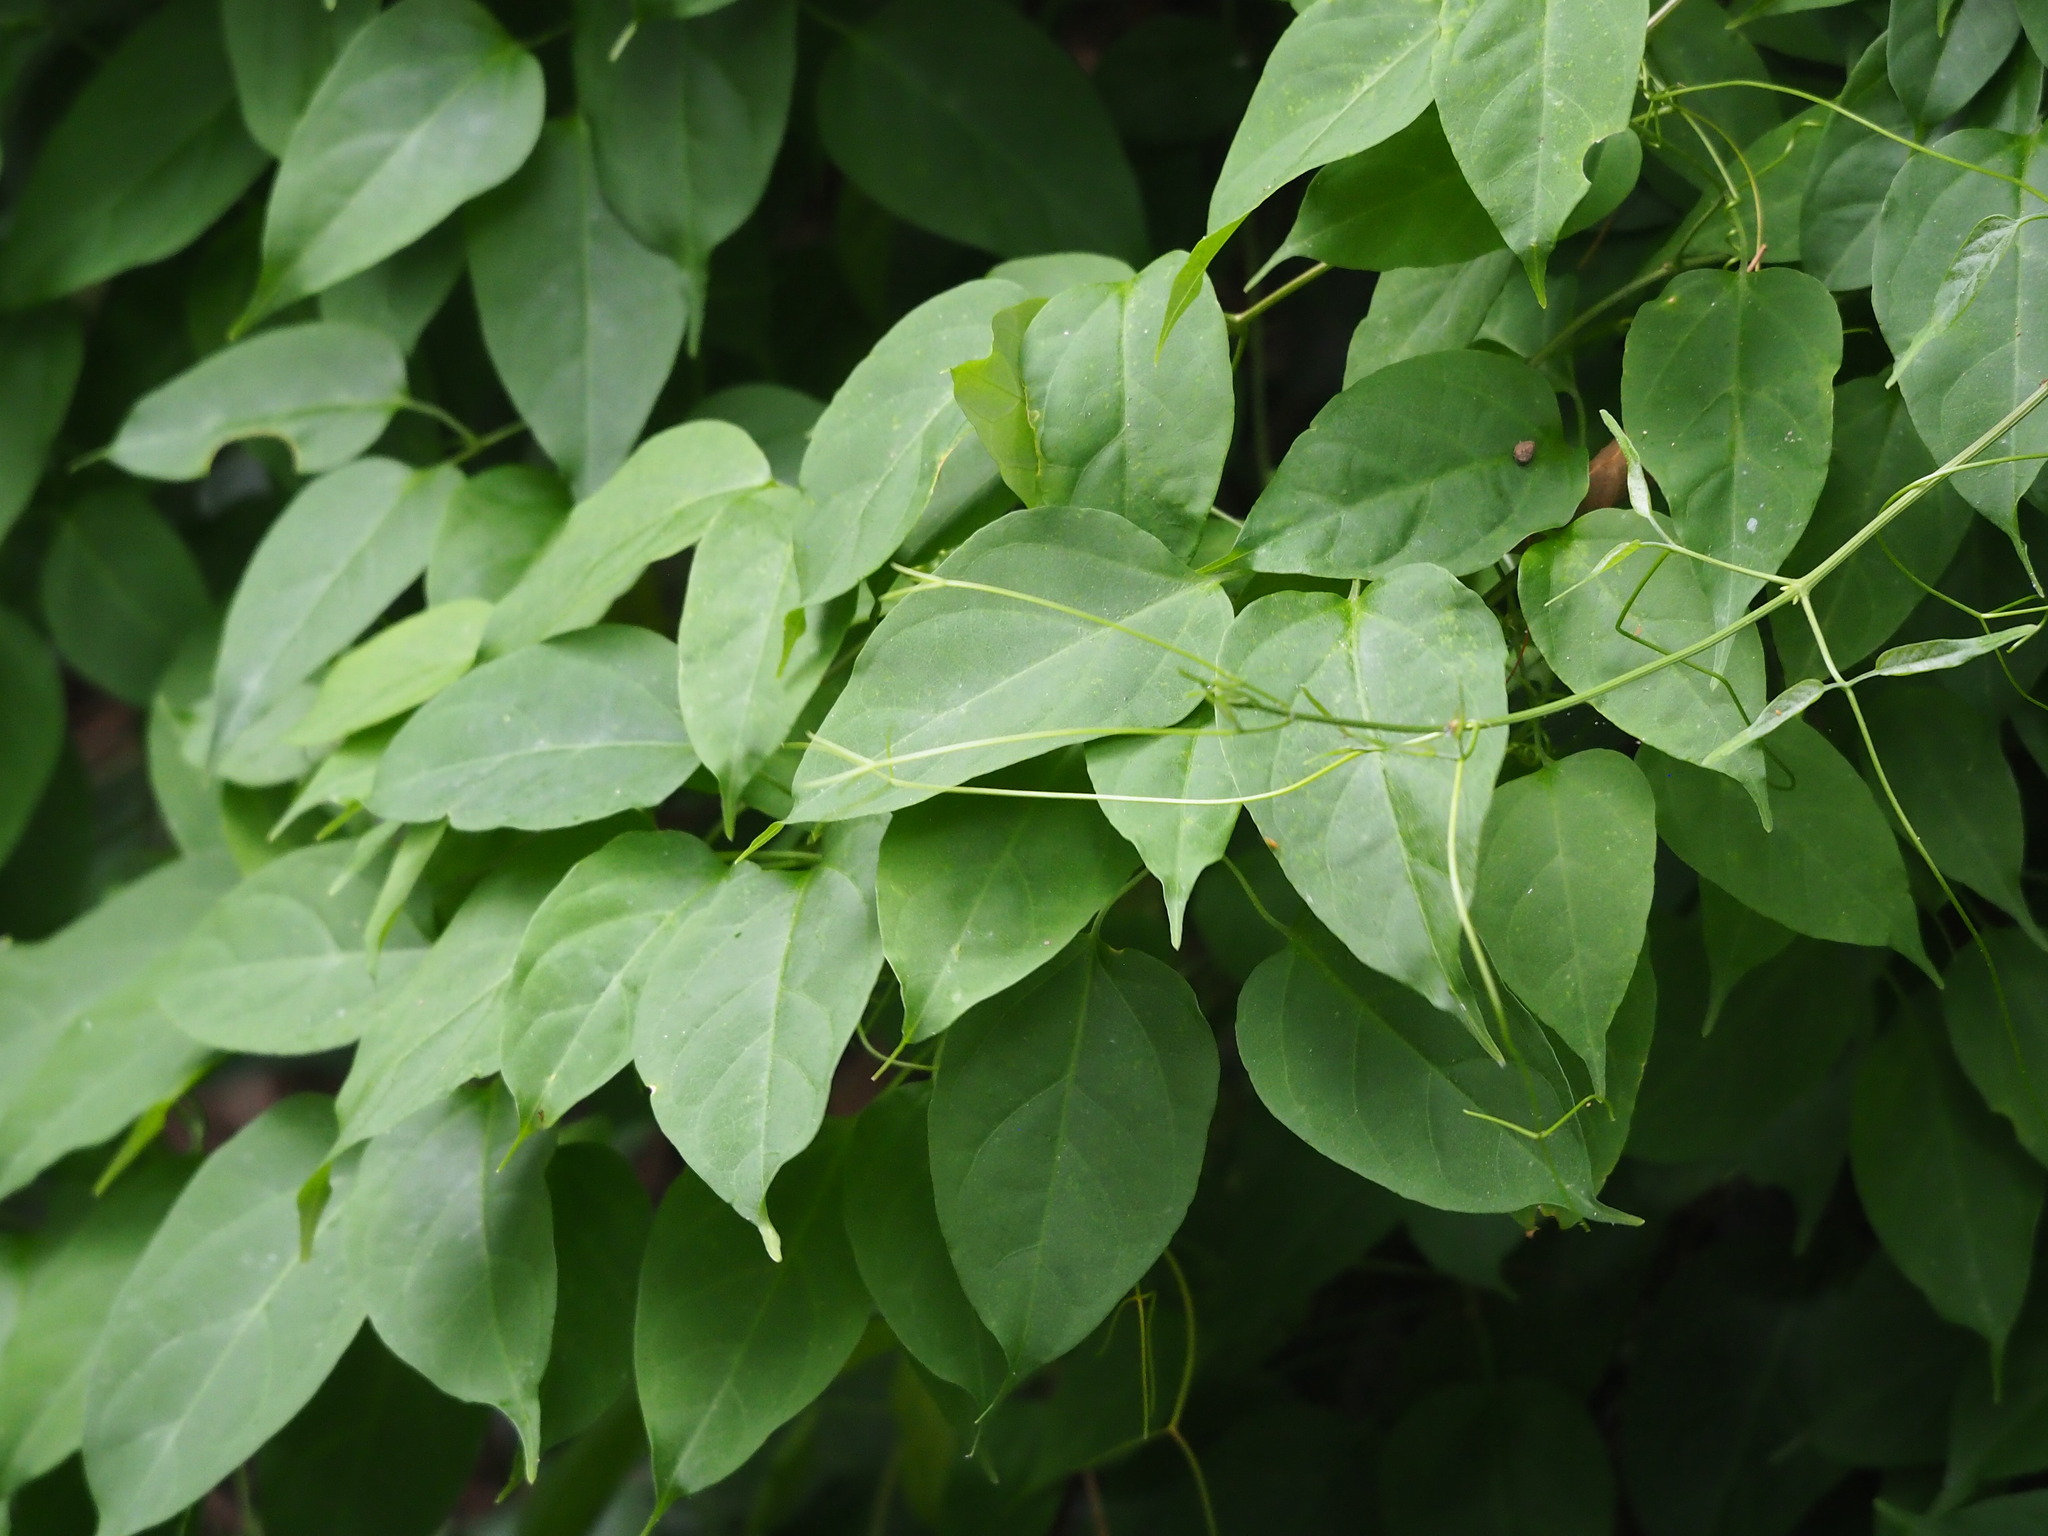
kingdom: Plantae
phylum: Tracheophyta
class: Magnoliopsida
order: Lamiales
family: Bignoniaceae
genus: Pyrostegia
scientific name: Pyrostegia venusta
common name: Flamevine
